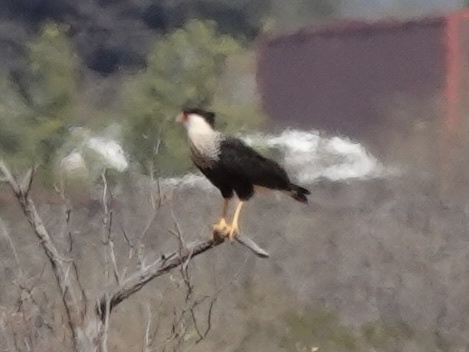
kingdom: Animalia
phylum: Chordata
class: Aves
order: Falconiformes
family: Falconidae
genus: Caracara
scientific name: Caracara plancus
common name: Southern caracara
